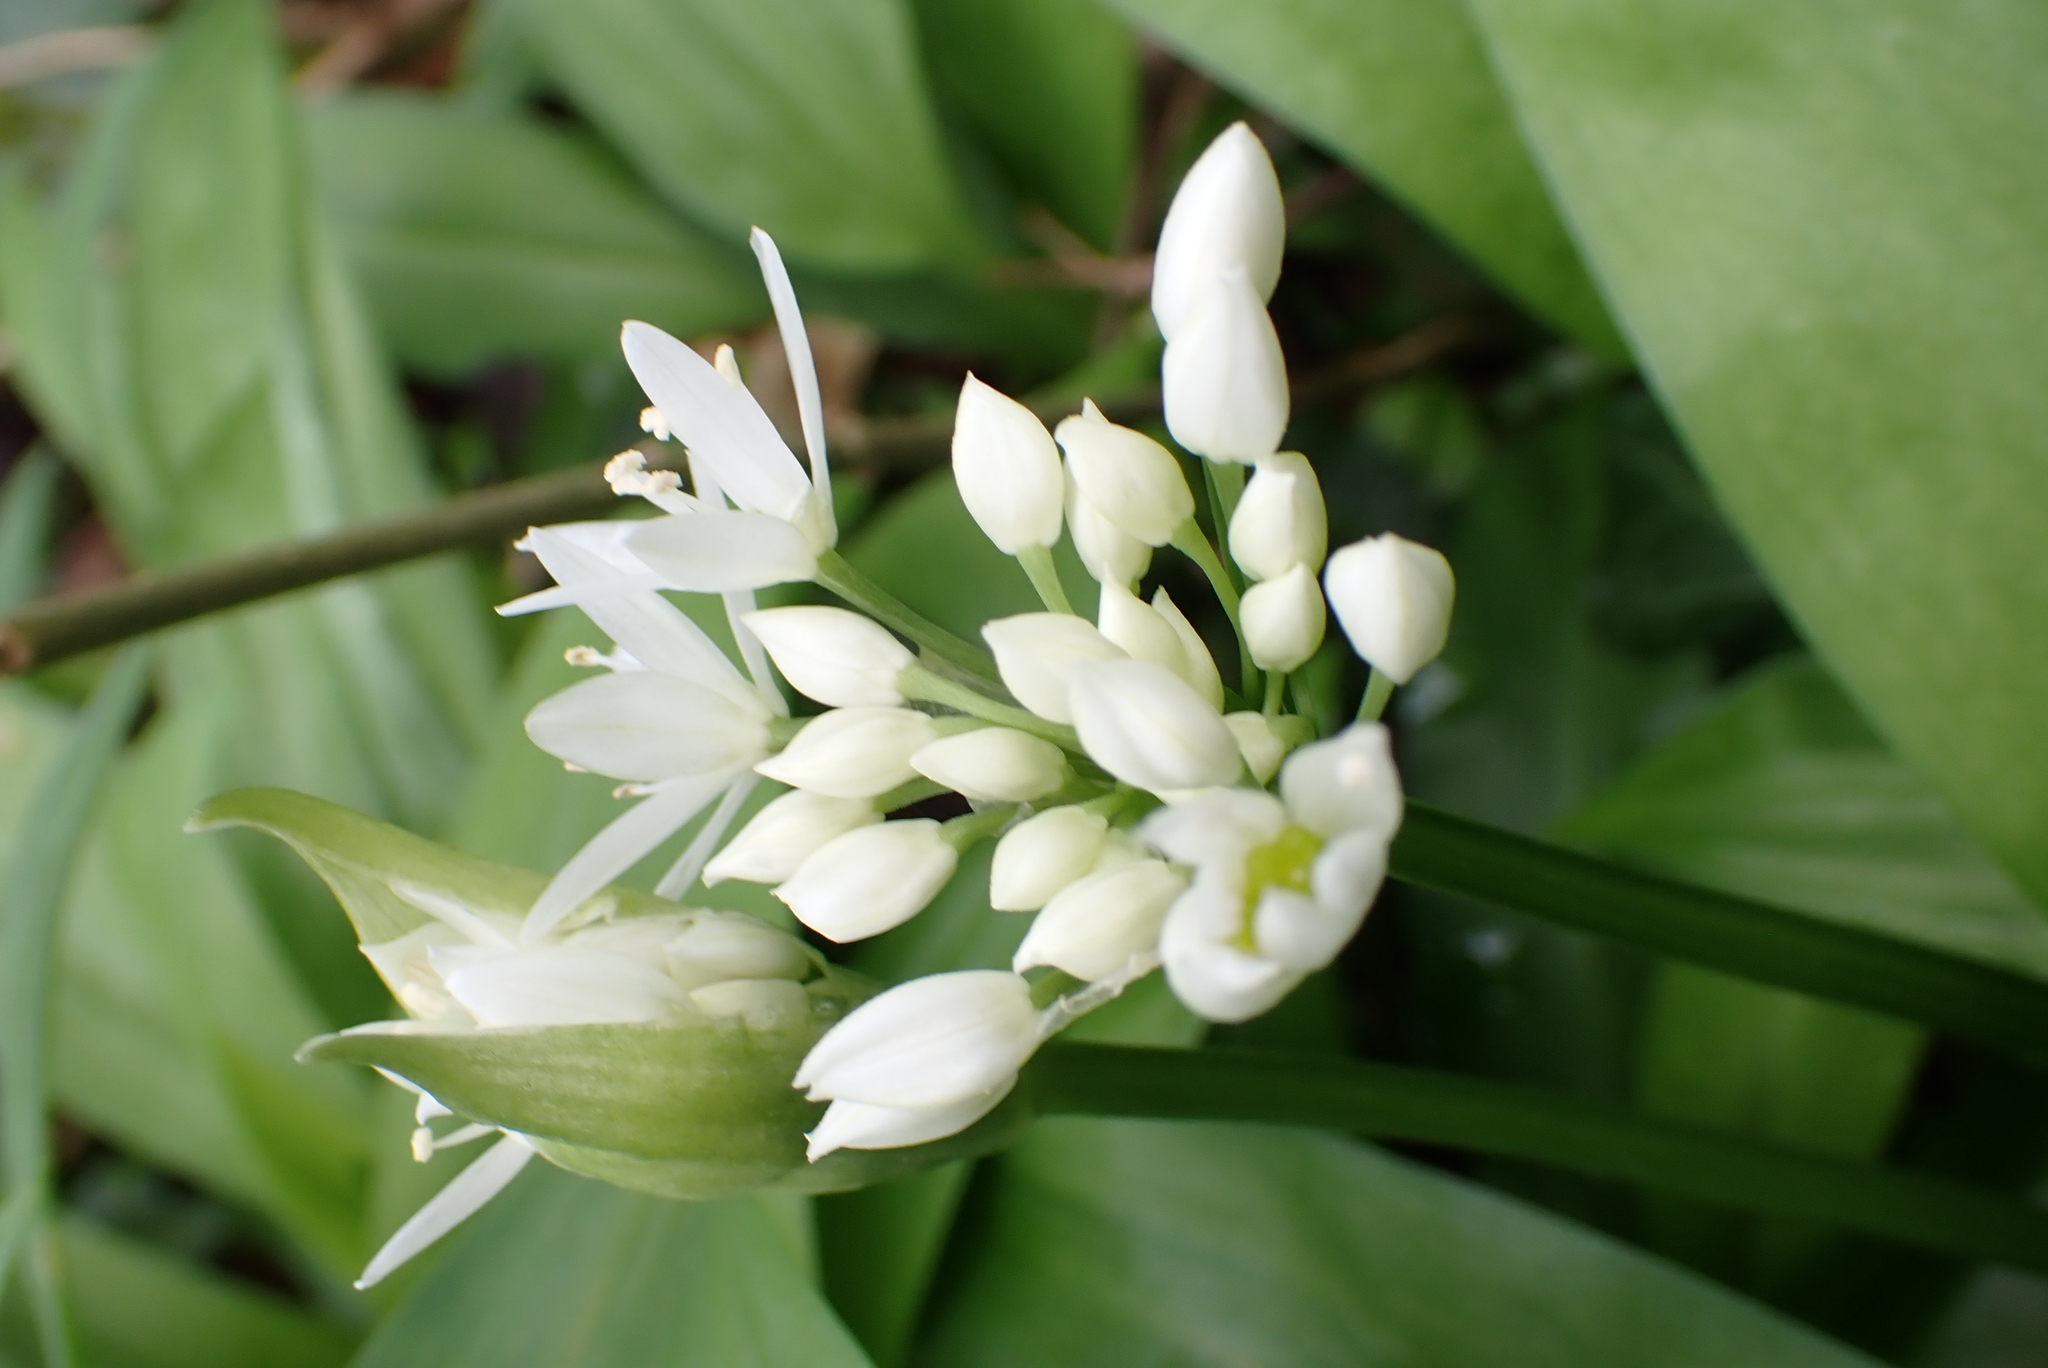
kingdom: Plantae
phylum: Tracheophyta
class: Liliopsida
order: Asparagales
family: Amaryllidaceae
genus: Allium
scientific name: Allium ursinum
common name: Ramsons
